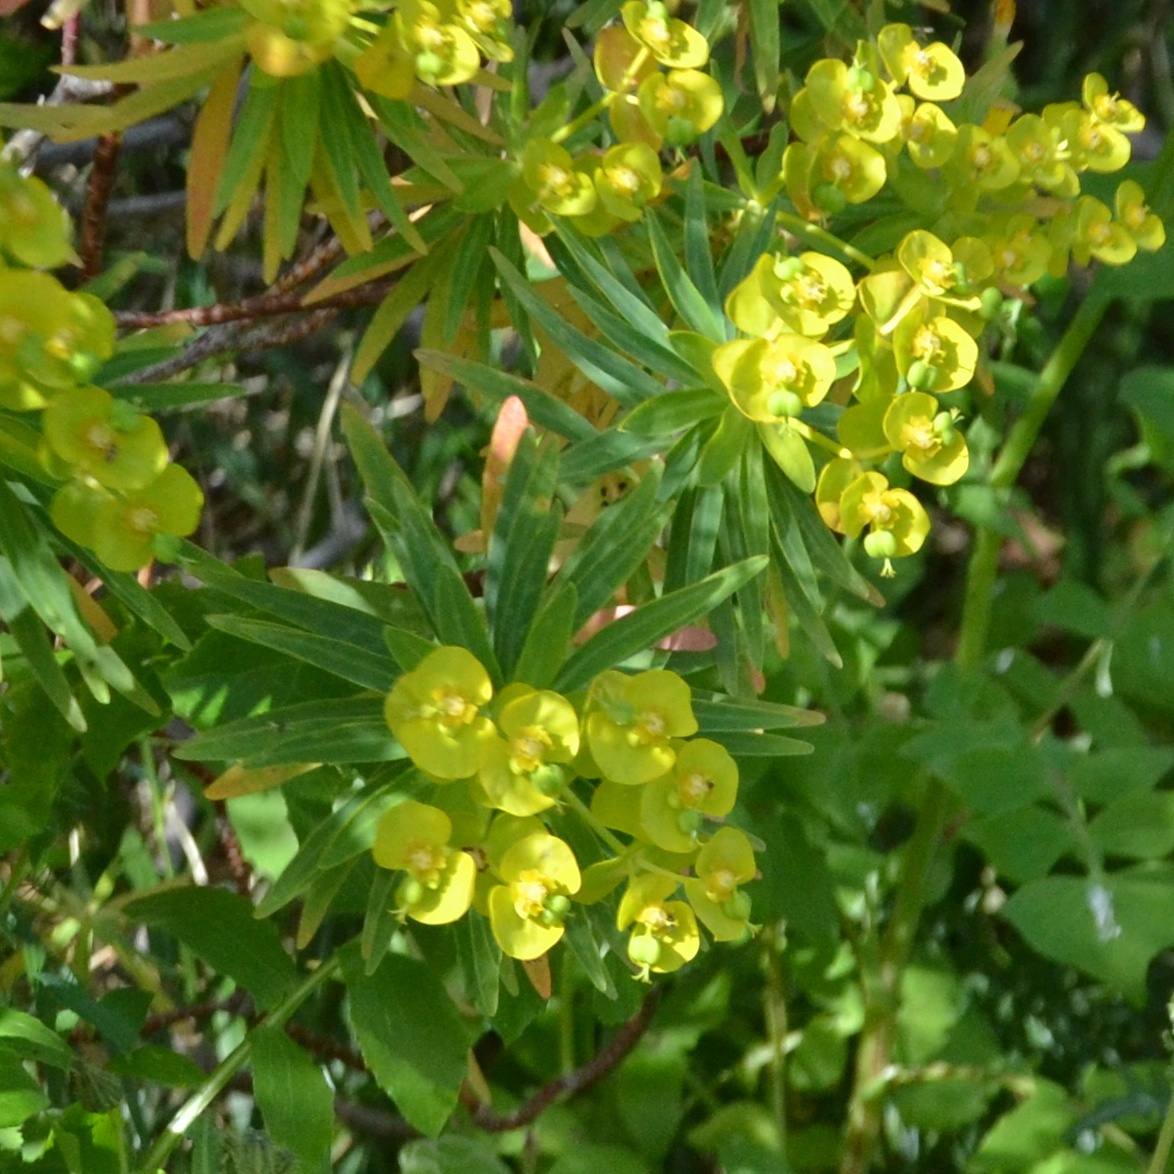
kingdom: Plantae
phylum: Tracheophyta
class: Magnoliopsida
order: Malpighiales
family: Euphorbiaceae
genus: Euphorbia
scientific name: Euphorbia dendroides
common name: Tree spurge
